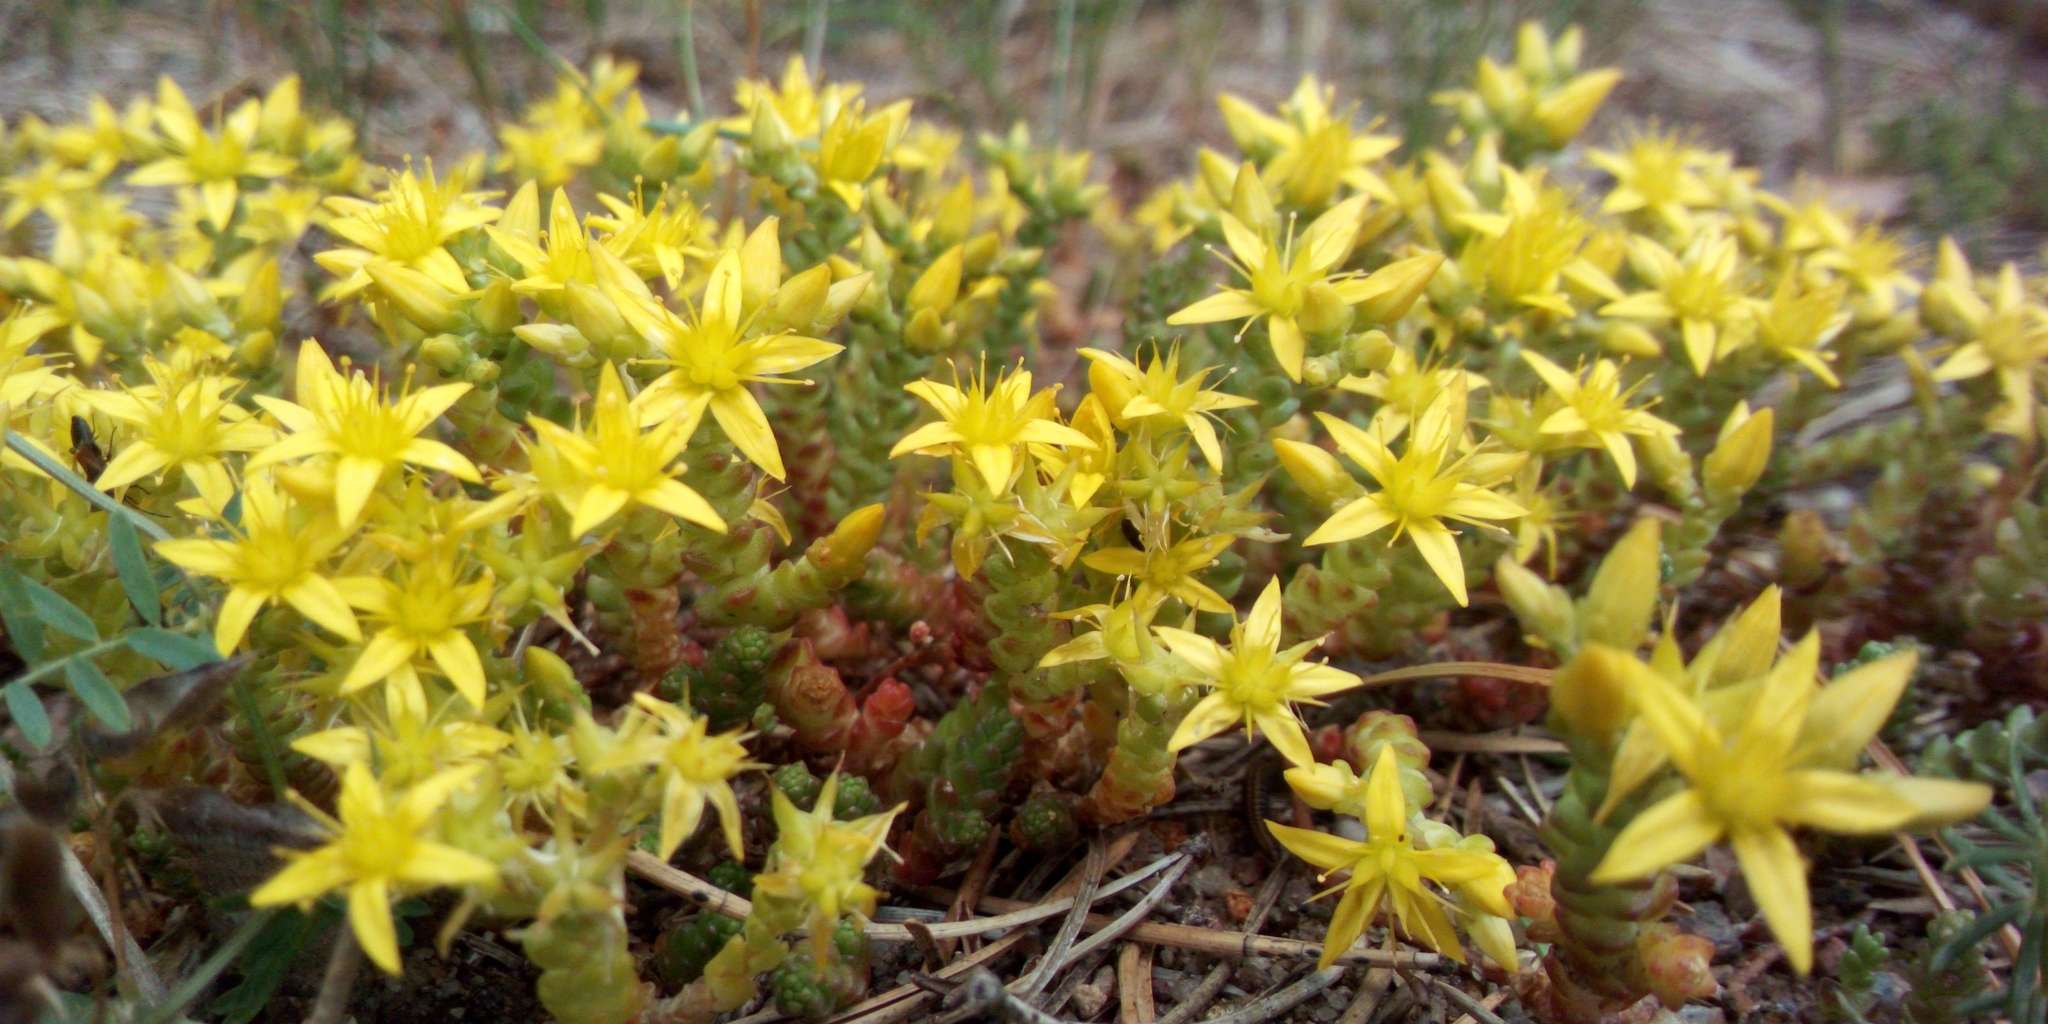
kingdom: Plantae
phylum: Tracheophyta
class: Magnoliopsida
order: Saxifragales
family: Crassulaceae
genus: Sedum
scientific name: Sedum acre
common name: Biting stonecrop
